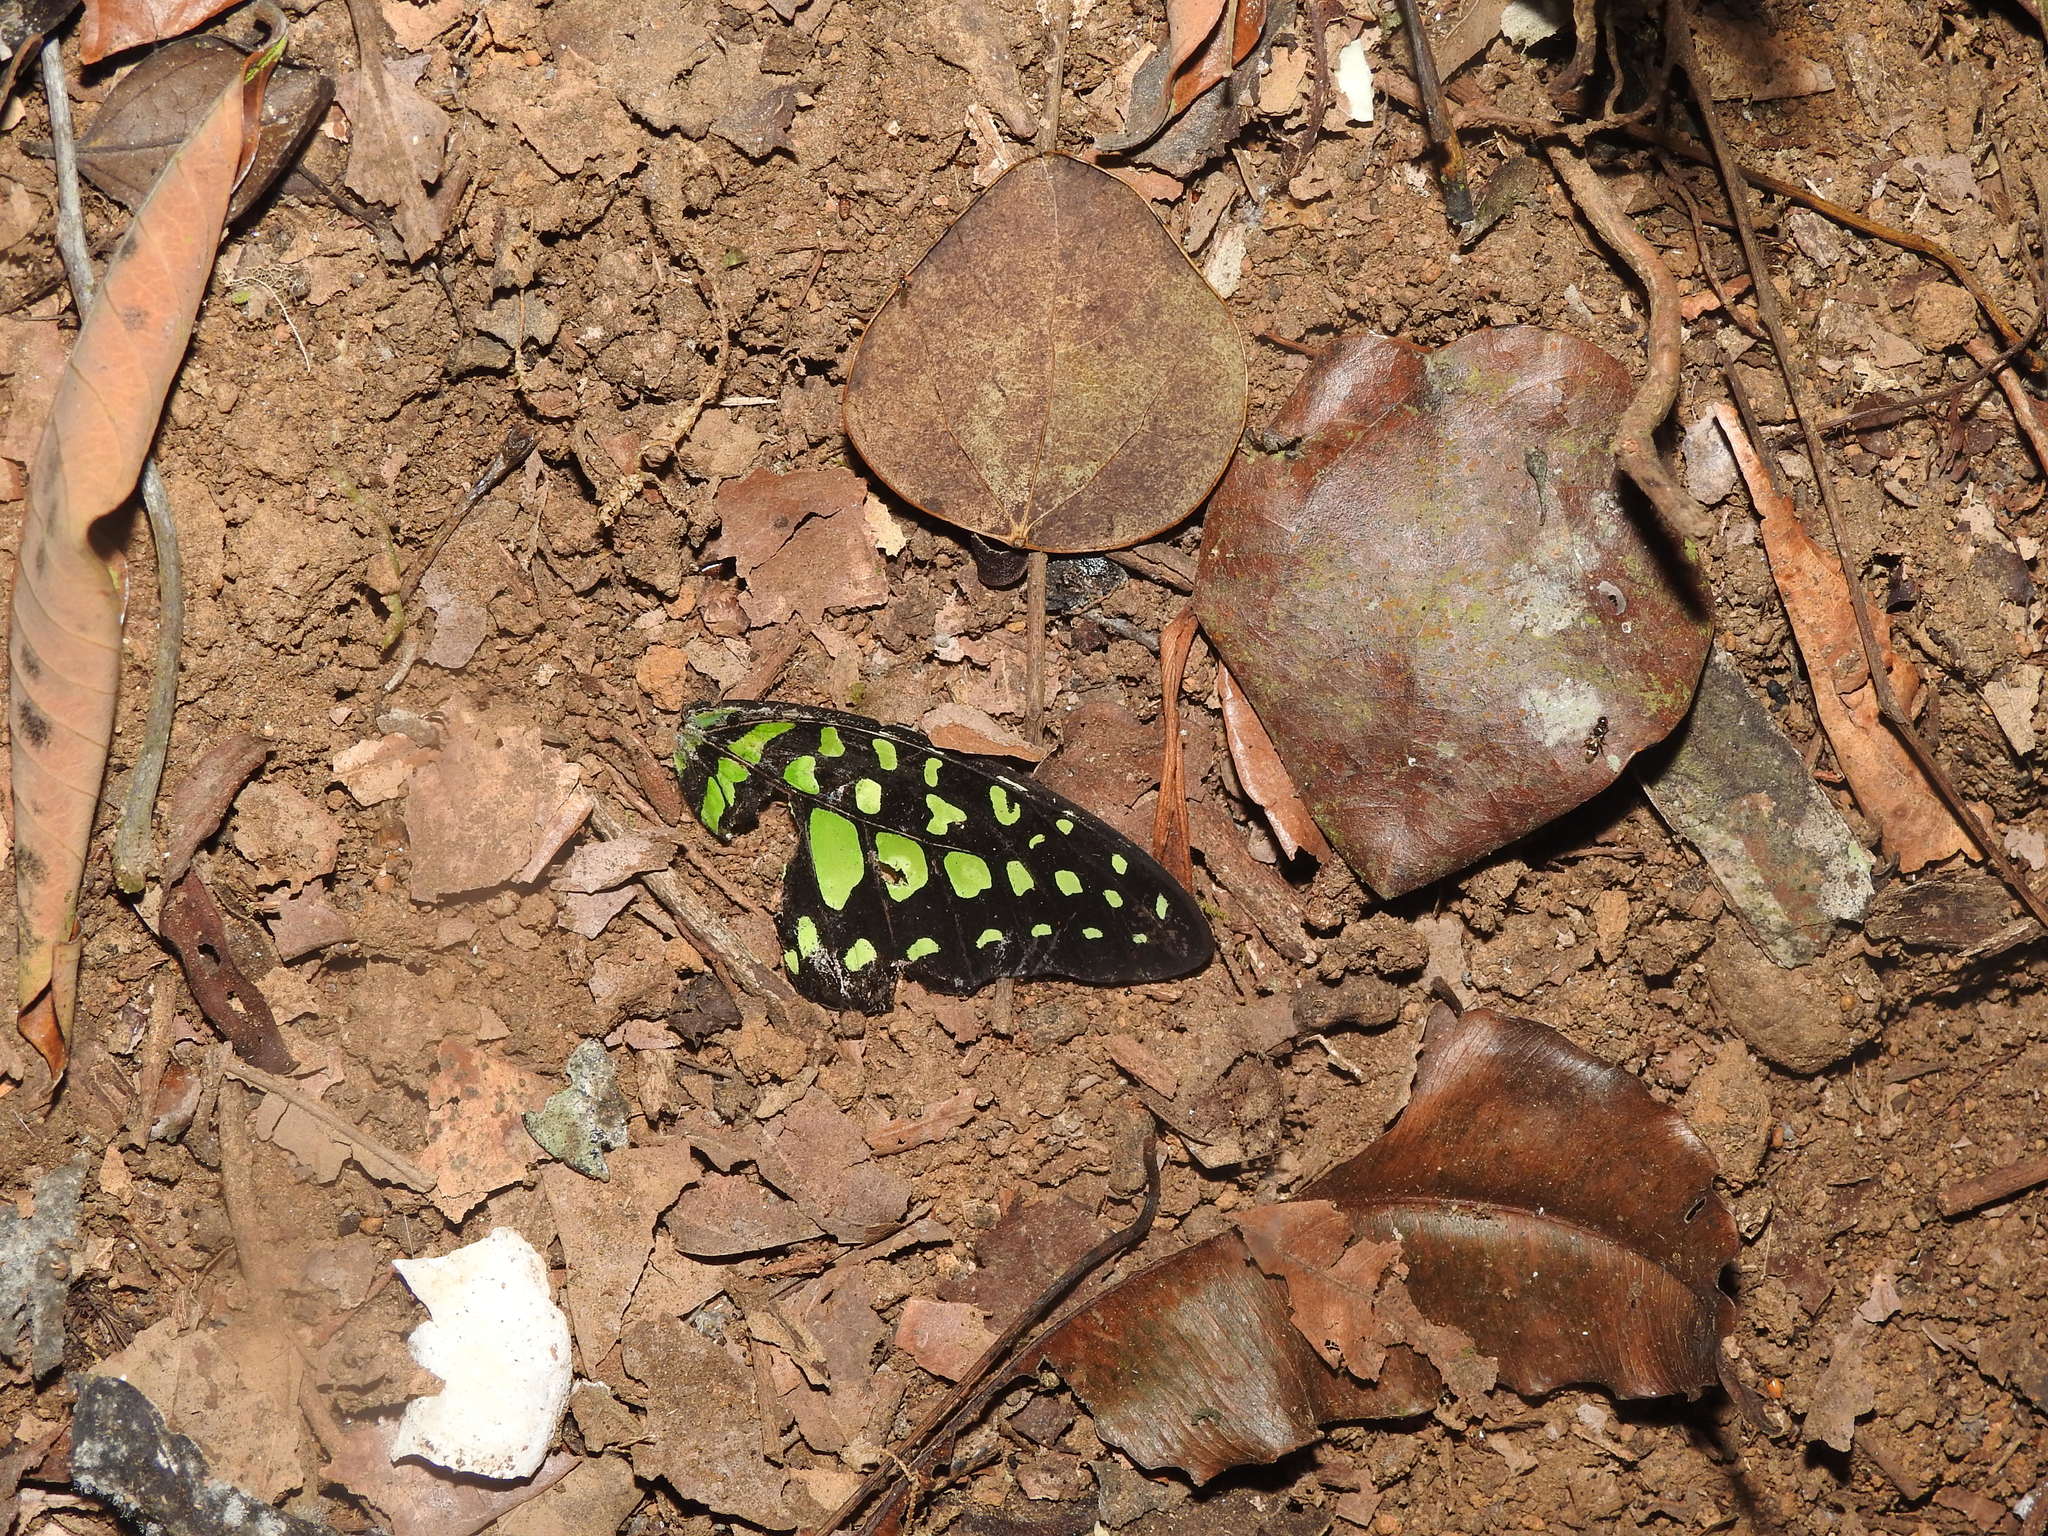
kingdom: Animalia
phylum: Arthropoda
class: Insecta
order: Lepidoptera
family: Papilionidae
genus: Graphium
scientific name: Graphium agamemnon
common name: Tailed jay
